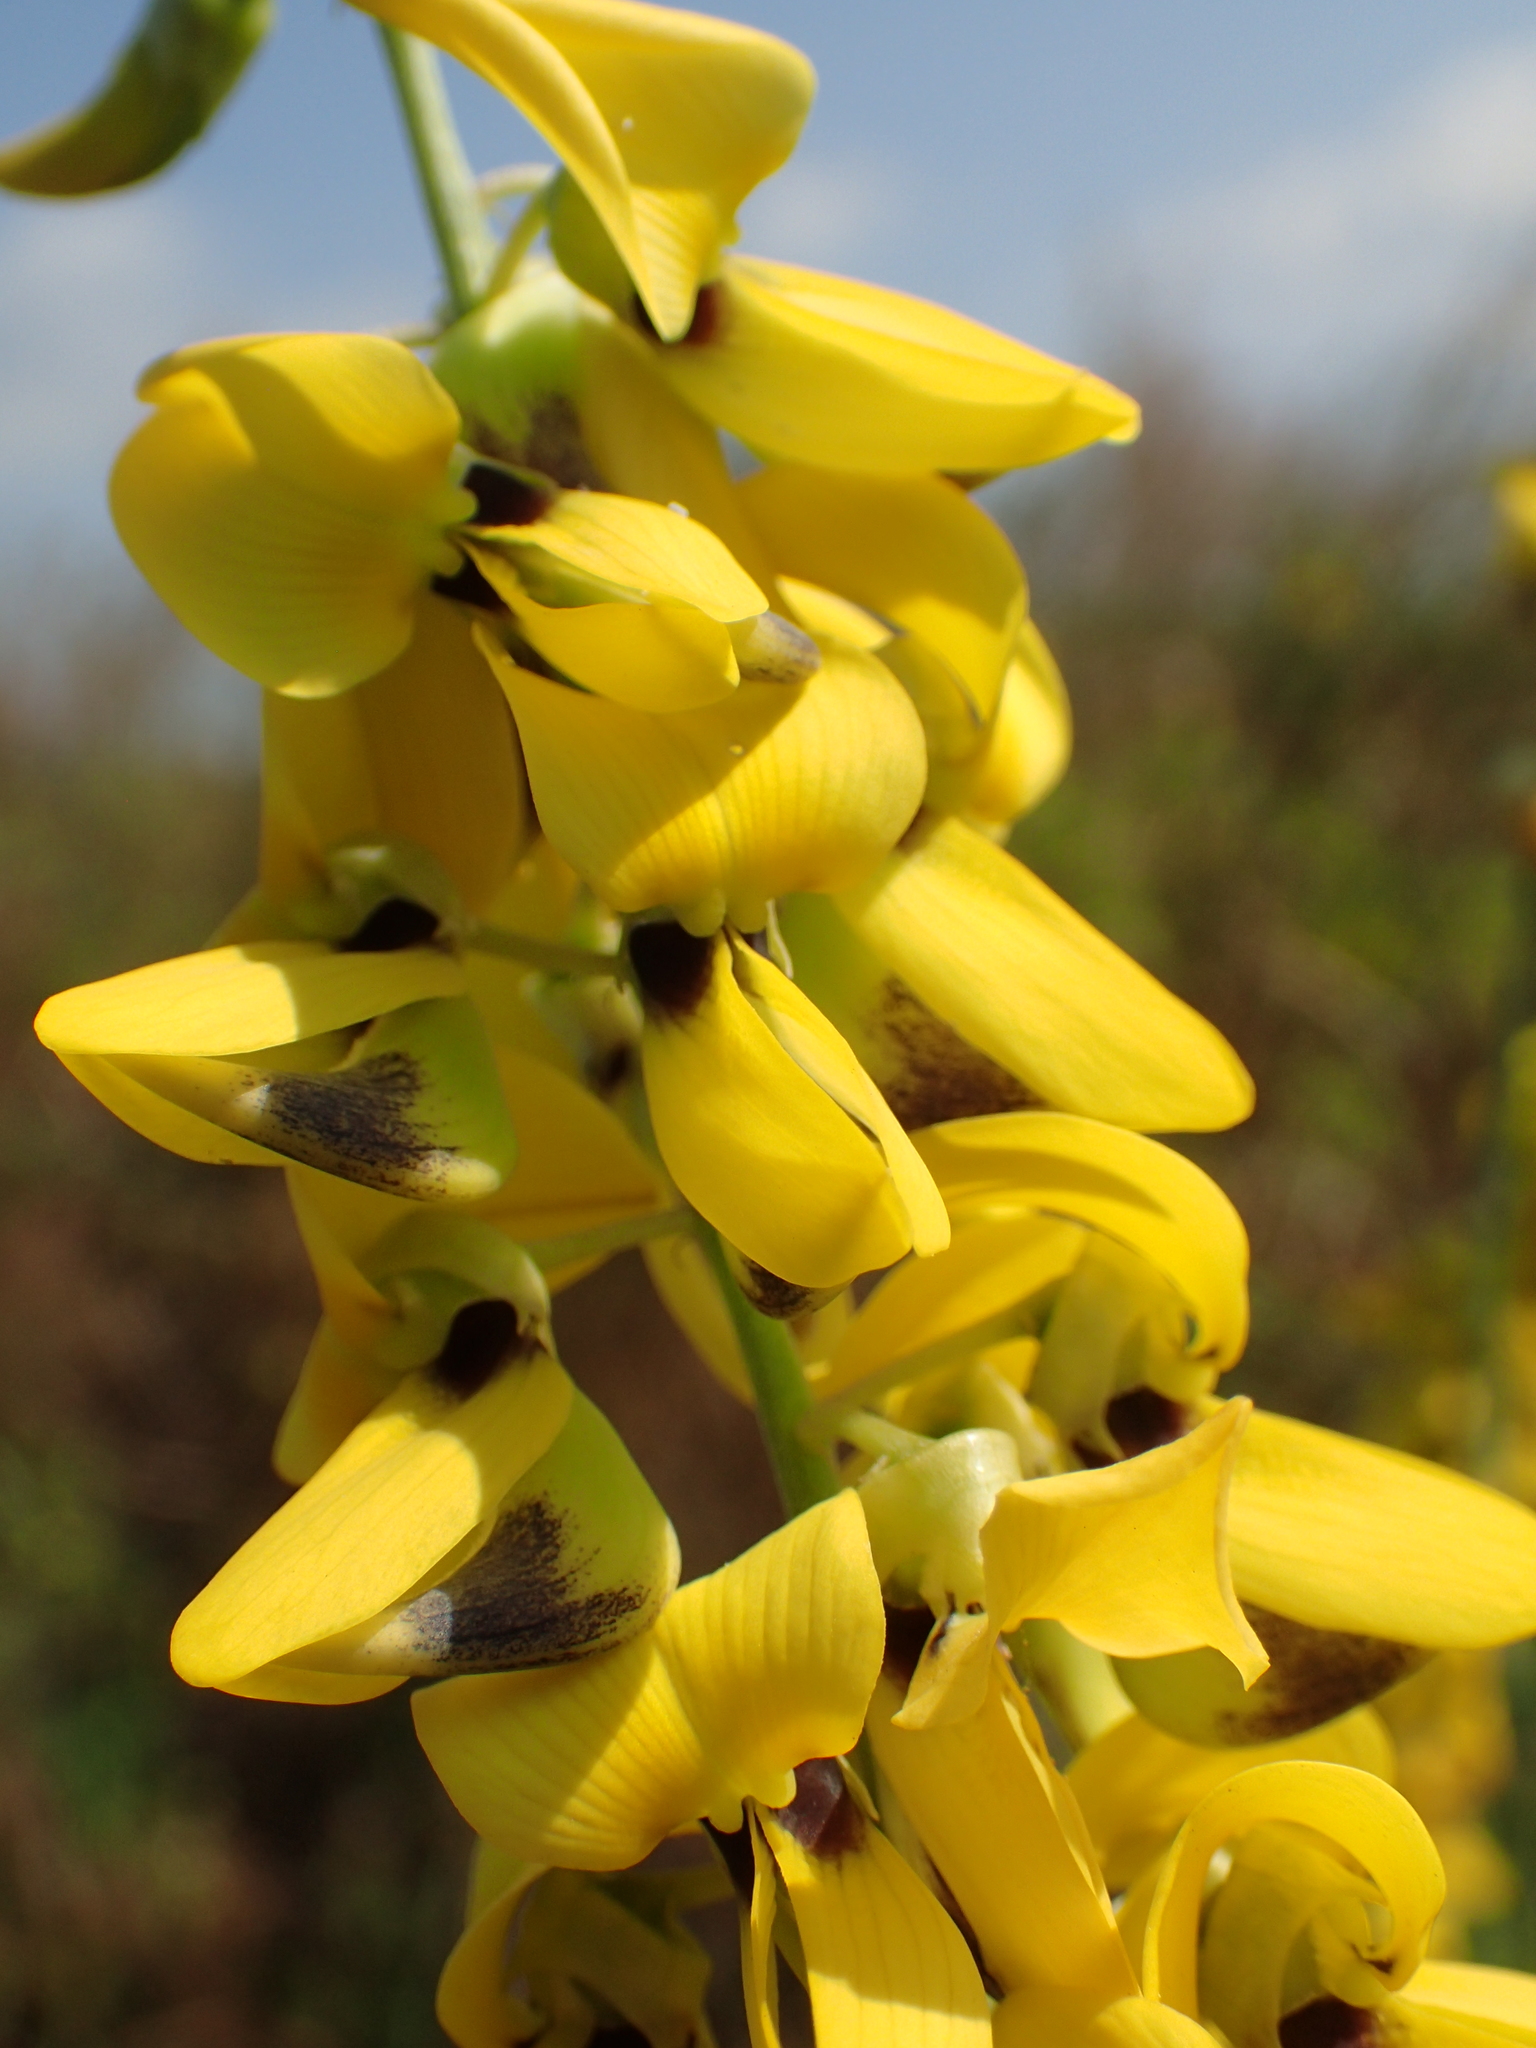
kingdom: Plantae
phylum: Tracheophyta
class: Magnoliopsida
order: Fabales
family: Fabaceae
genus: Crotalaria
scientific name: Crotalaria trichotoma
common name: West indian rattlebox
